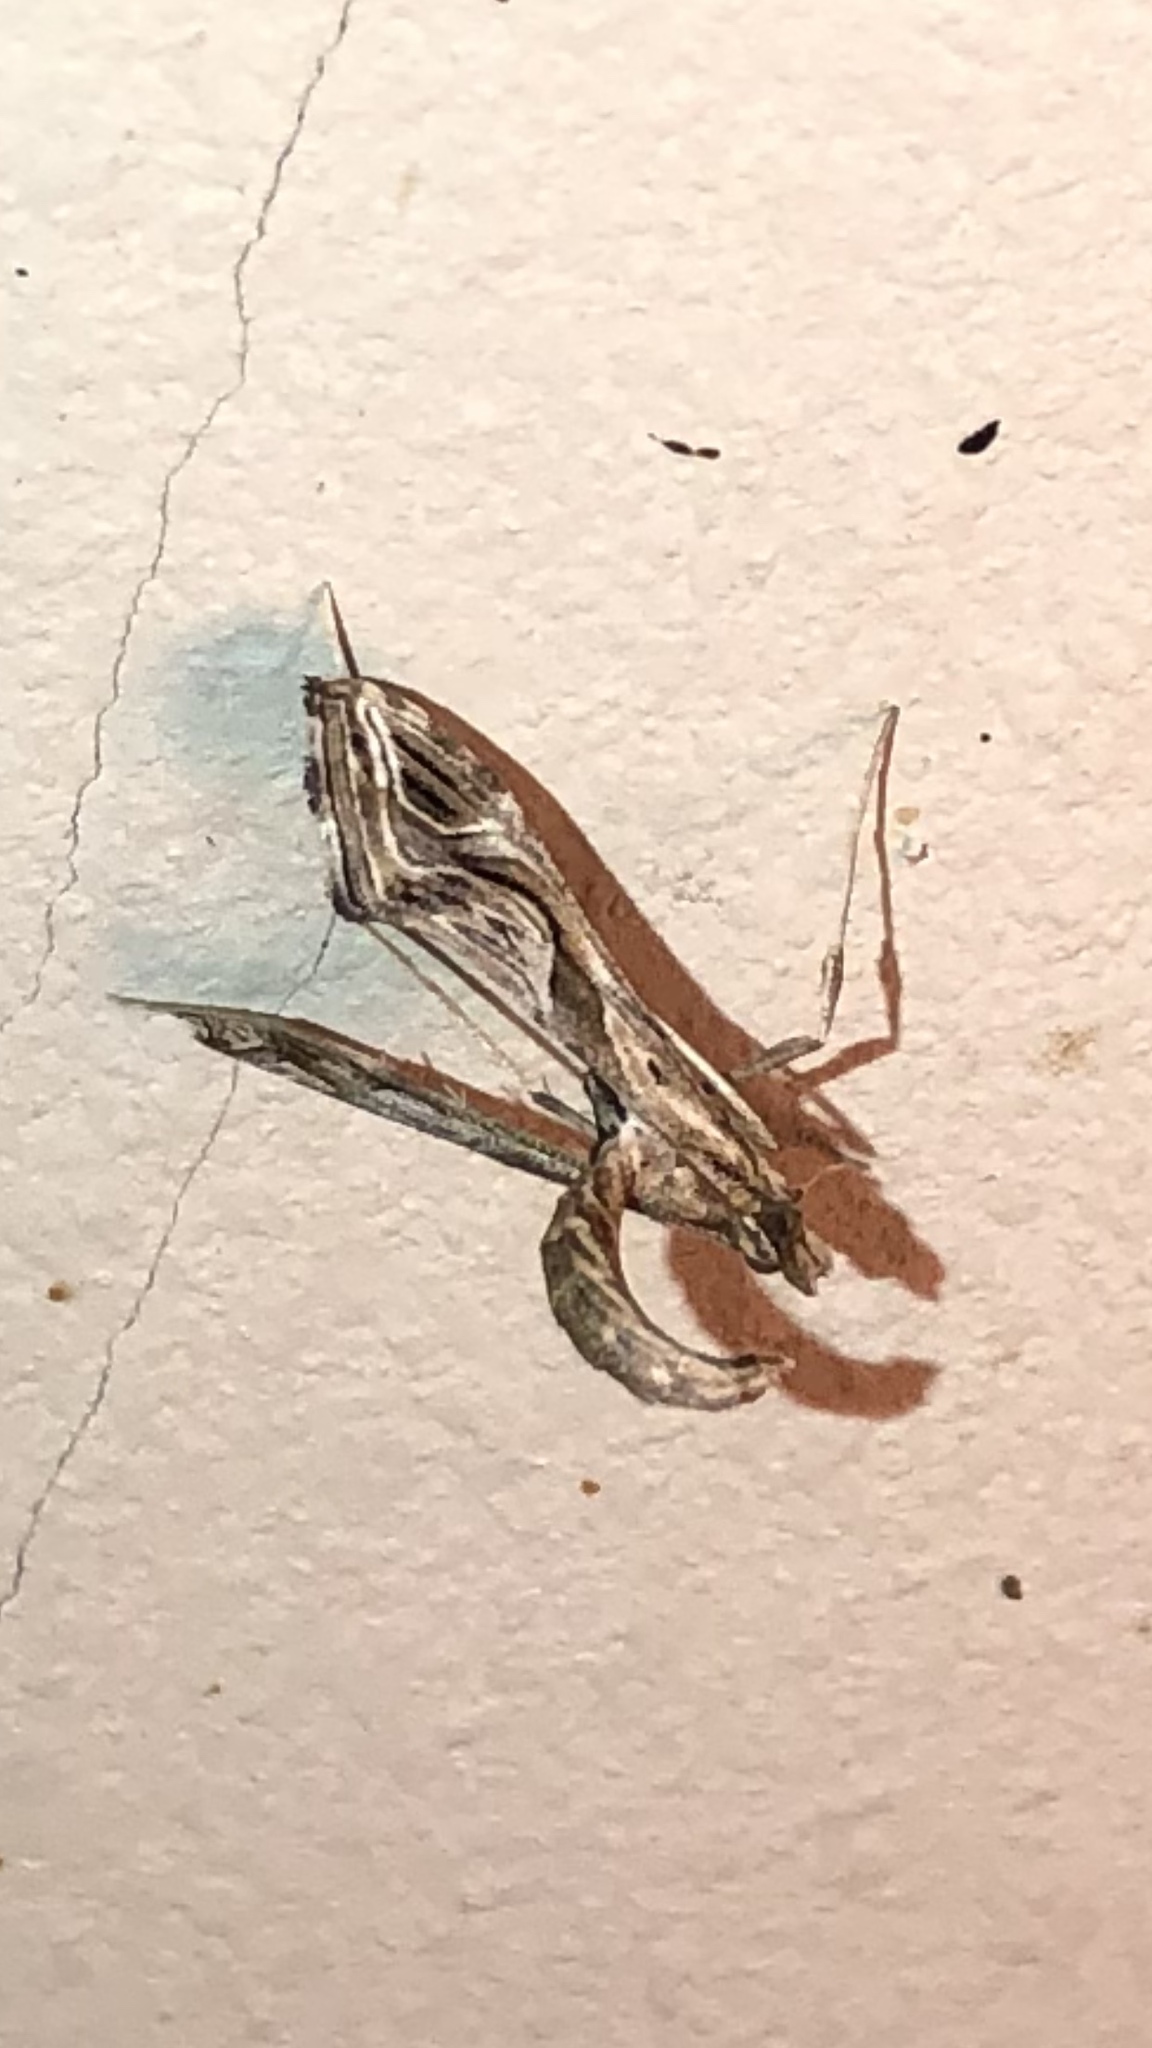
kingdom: Animalia
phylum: Arthropoda
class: Insecta
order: Lepidoptera
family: Crambidae
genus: Lineodes
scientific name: Lineodes integra
